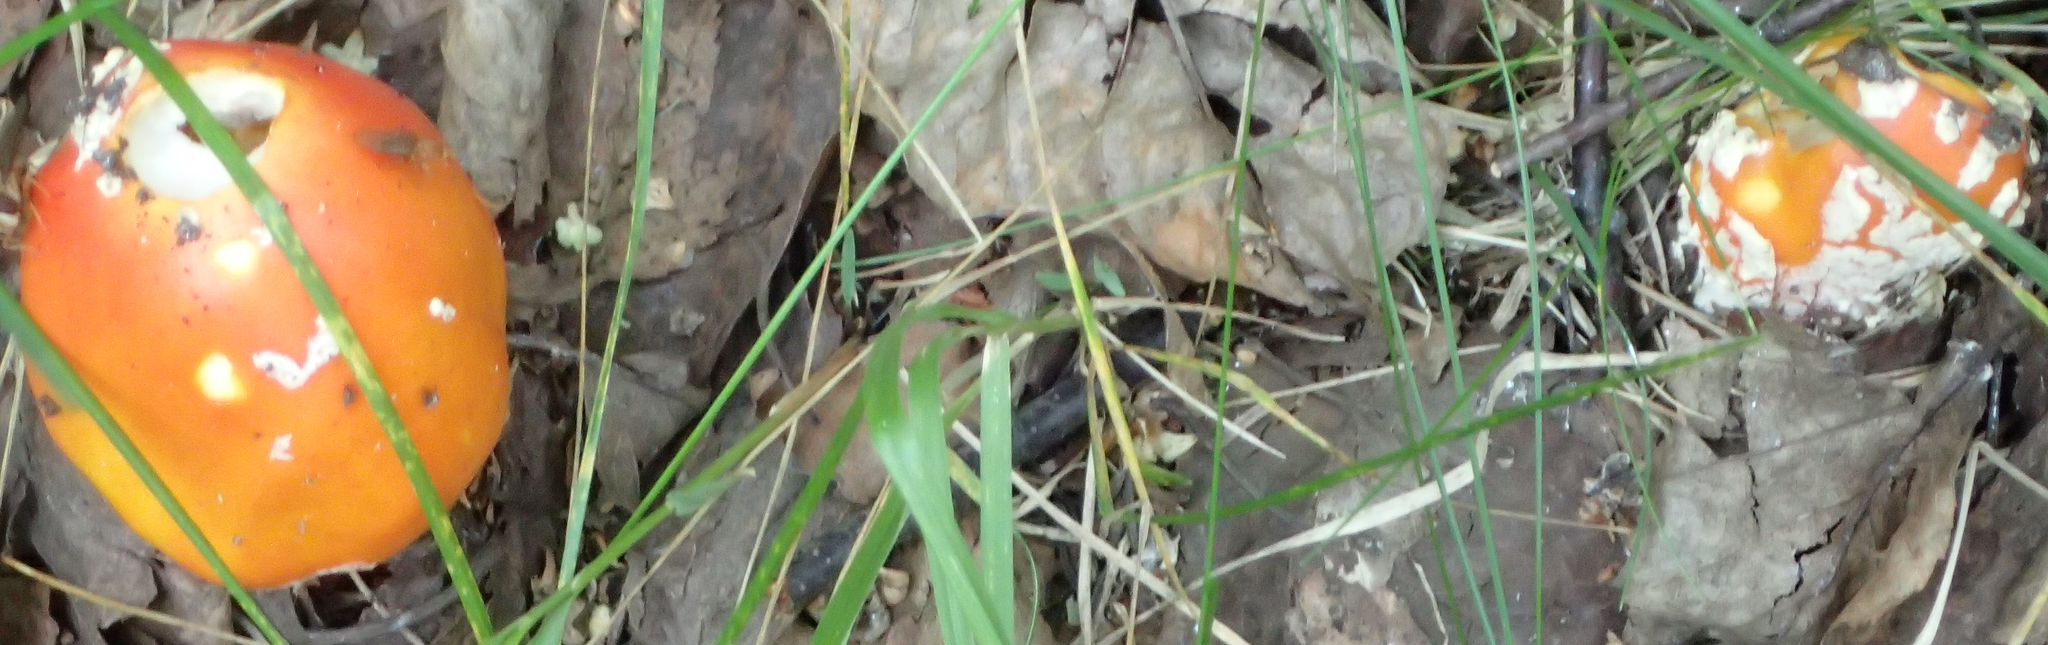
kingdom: Fungi
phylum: Basidiomycota
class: Agaricomycetes
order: Agaricales
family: Amanitaceae
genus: Amanita
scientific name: Amanita muscaria
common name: Fly agaric
